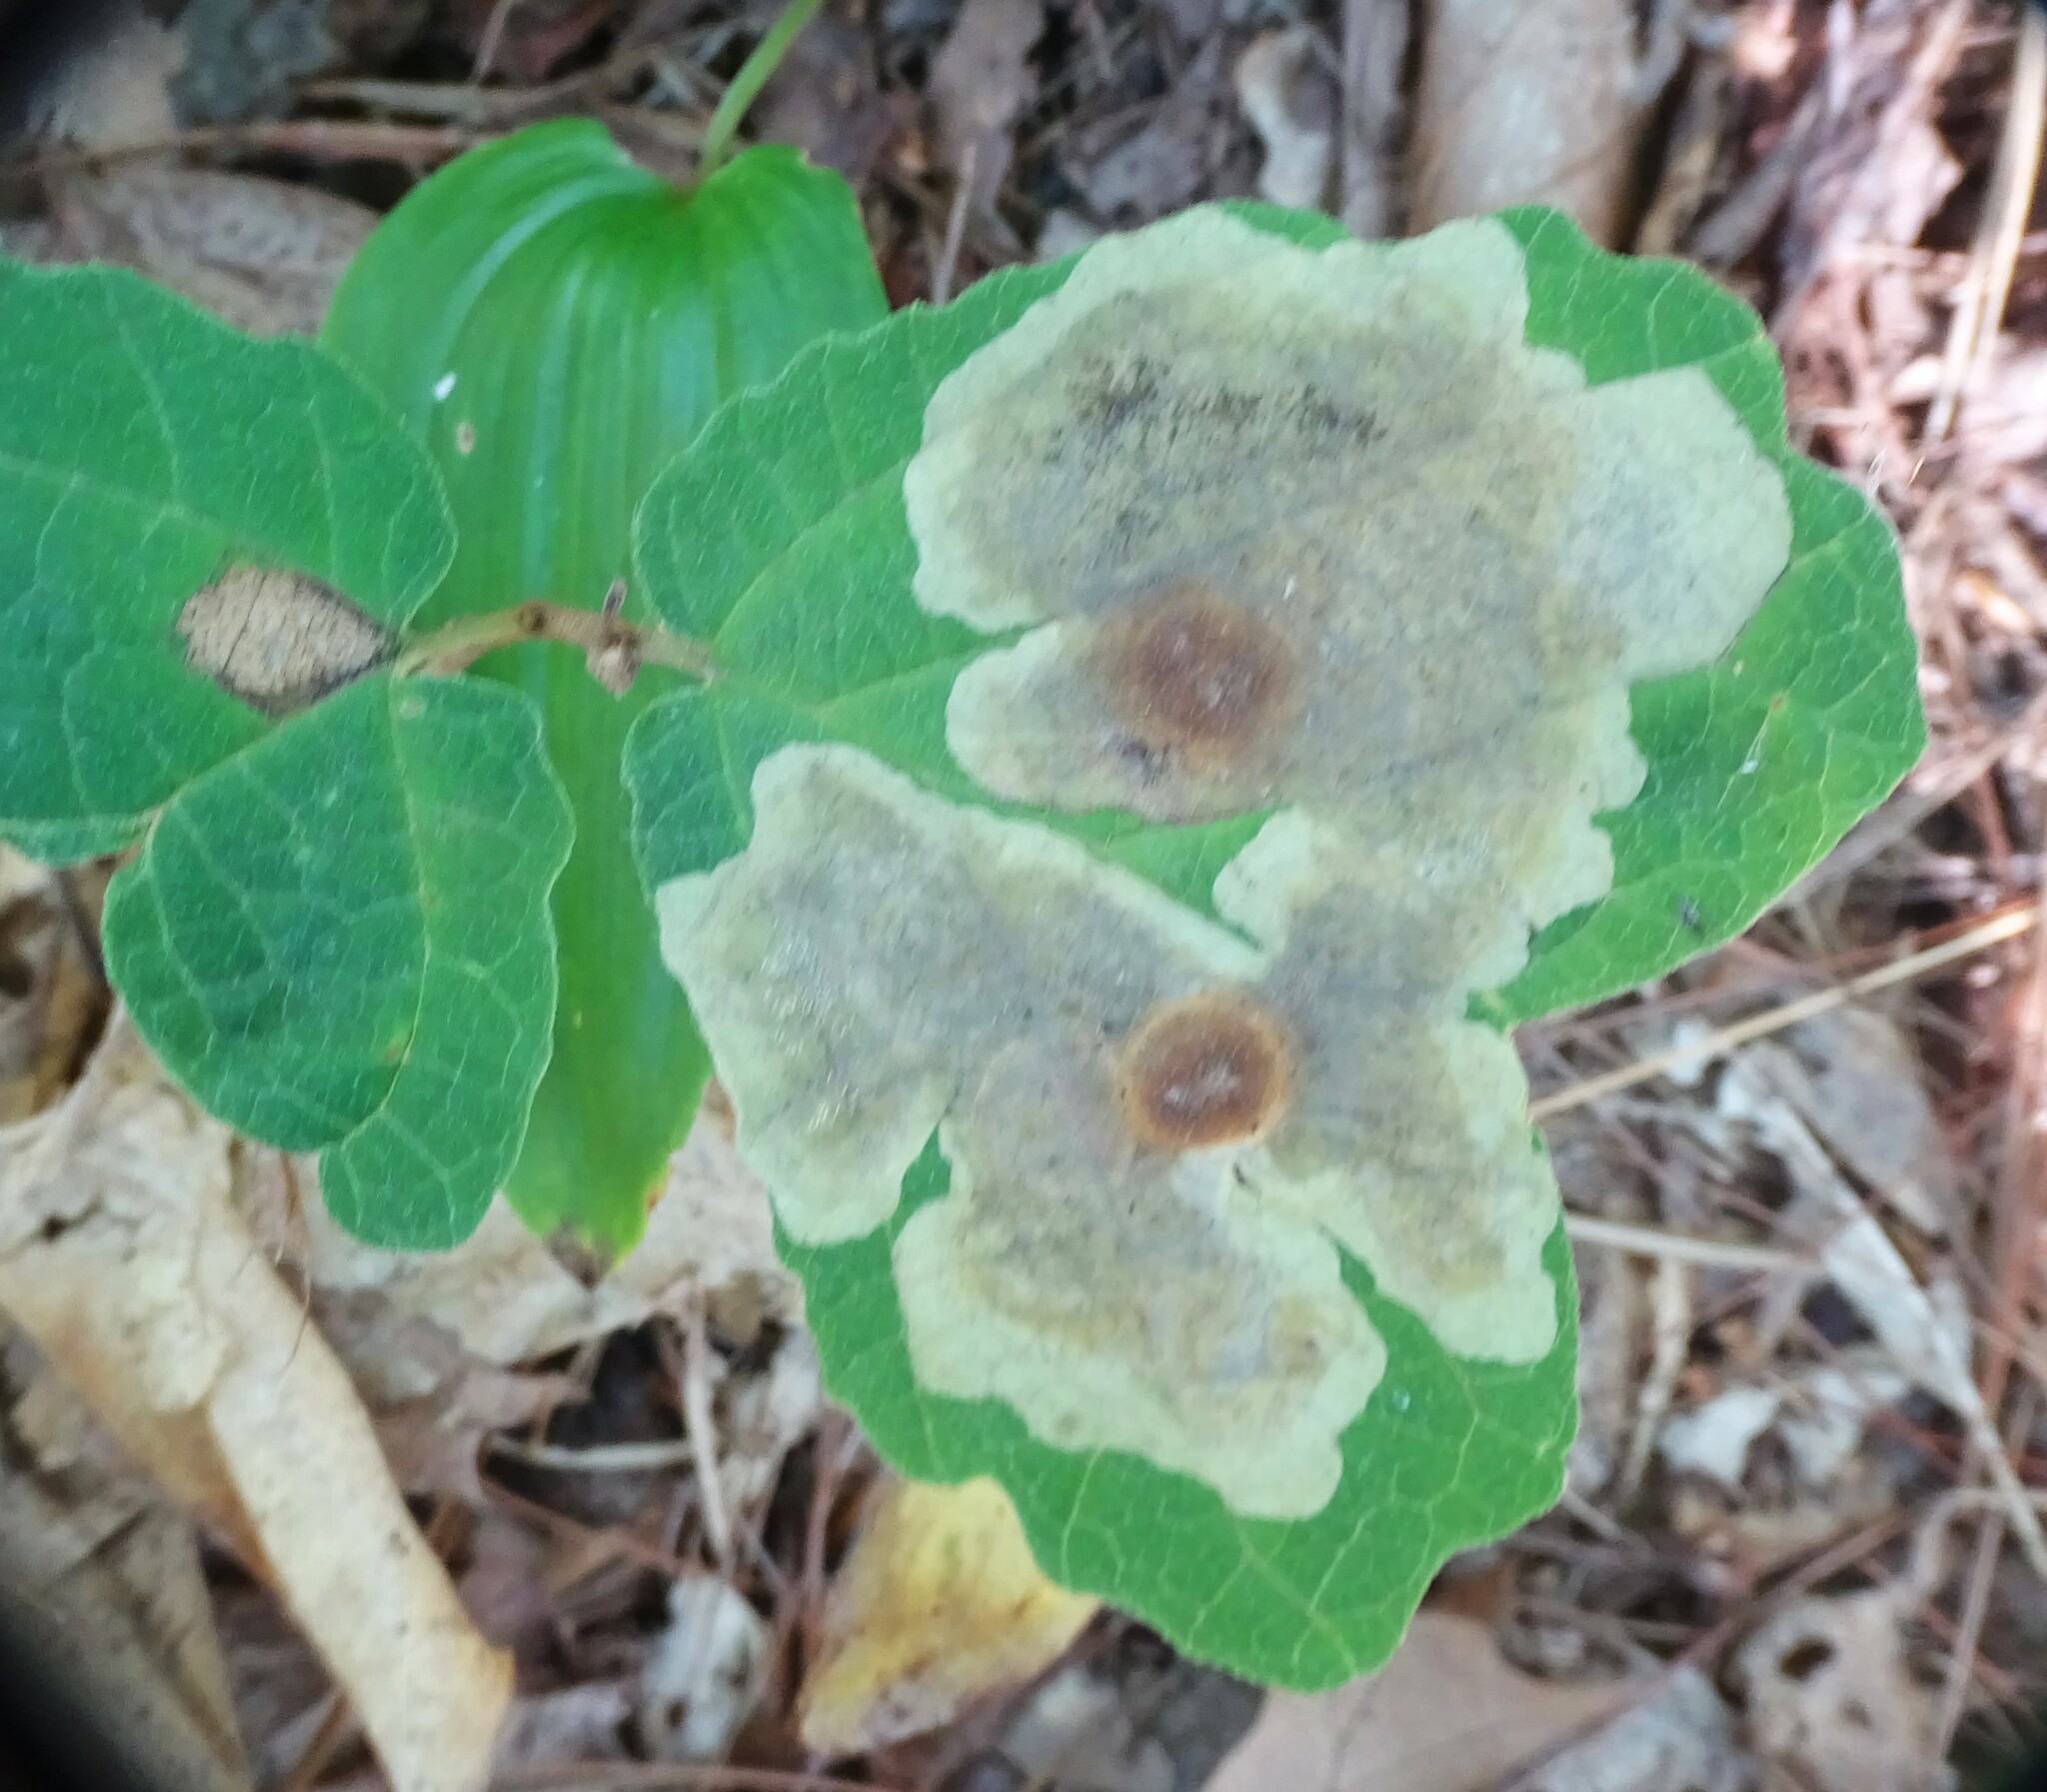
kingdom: Animalia
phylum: Arthropoda
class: Insecta
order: Lepidoptera
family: Gracillariidae
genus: Cameraria
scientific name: Cameraria hamameliella
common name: Witchhazel leafminer
